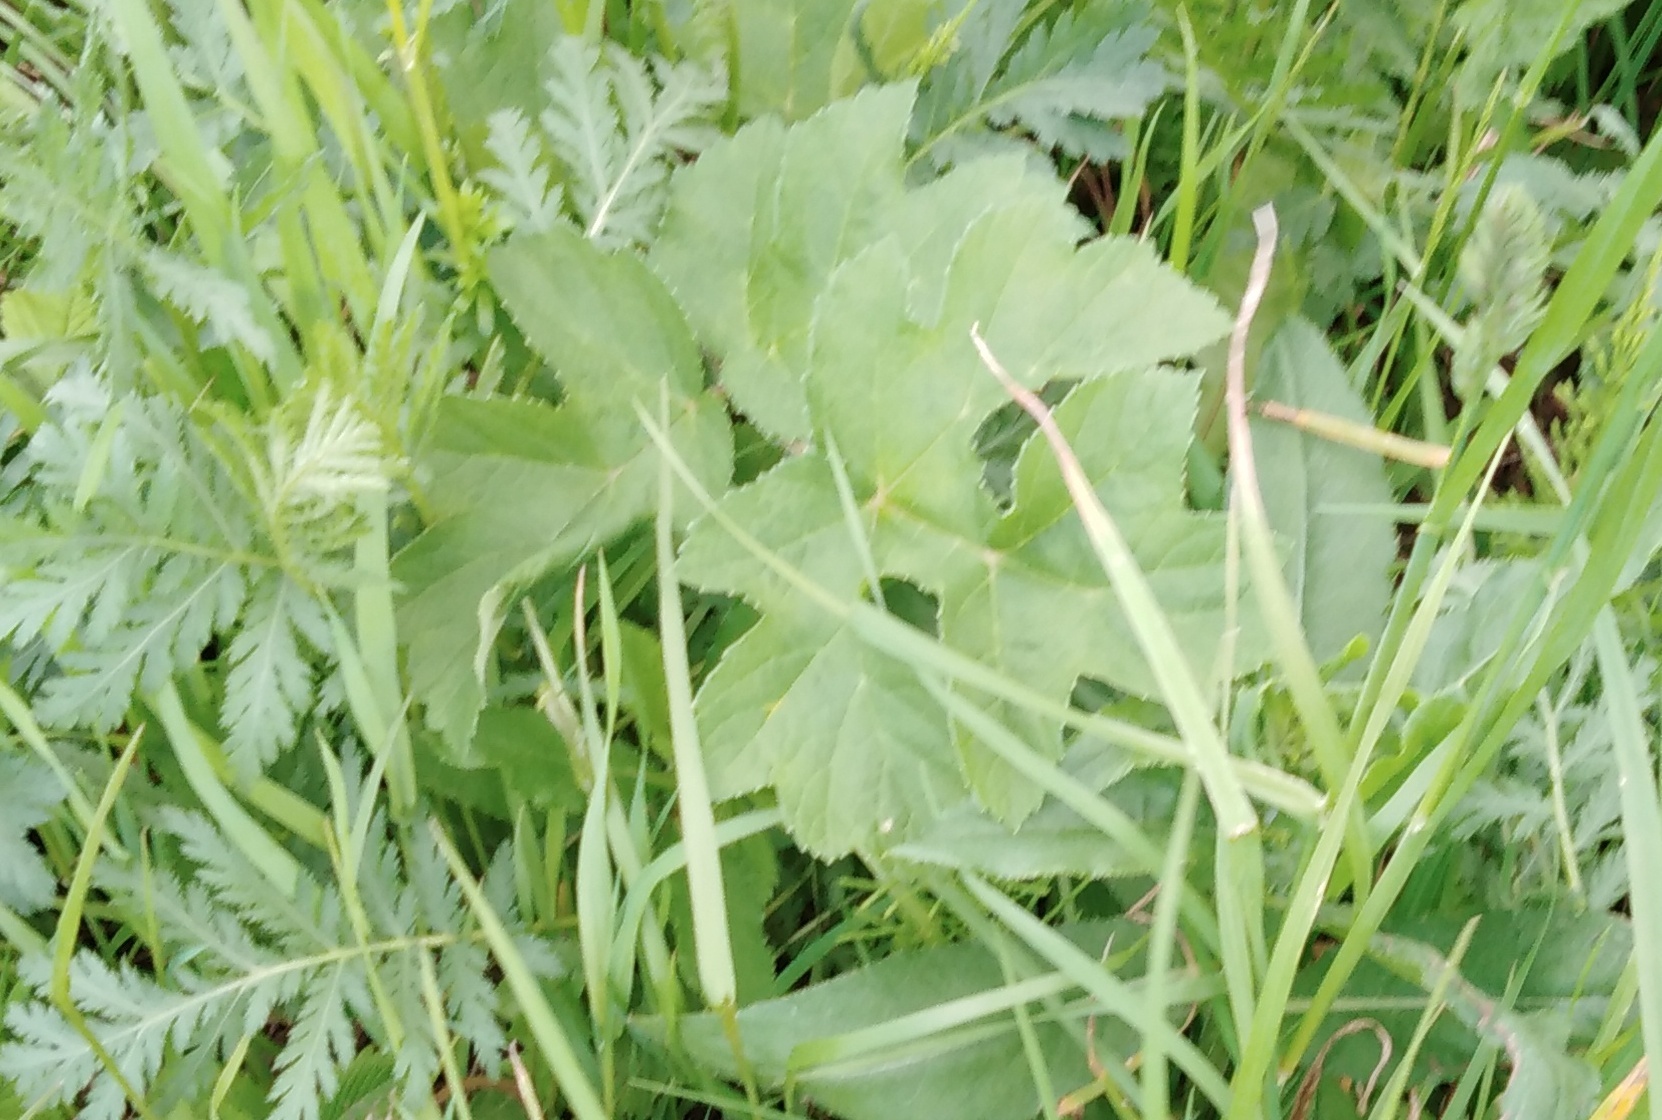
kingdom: Plantae
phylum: Tracheophyta
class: Magnoliopsida
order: Apiales
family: Apiaceae
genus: Heracleum
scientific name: Heracleum sphondylium
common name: Hogweed
